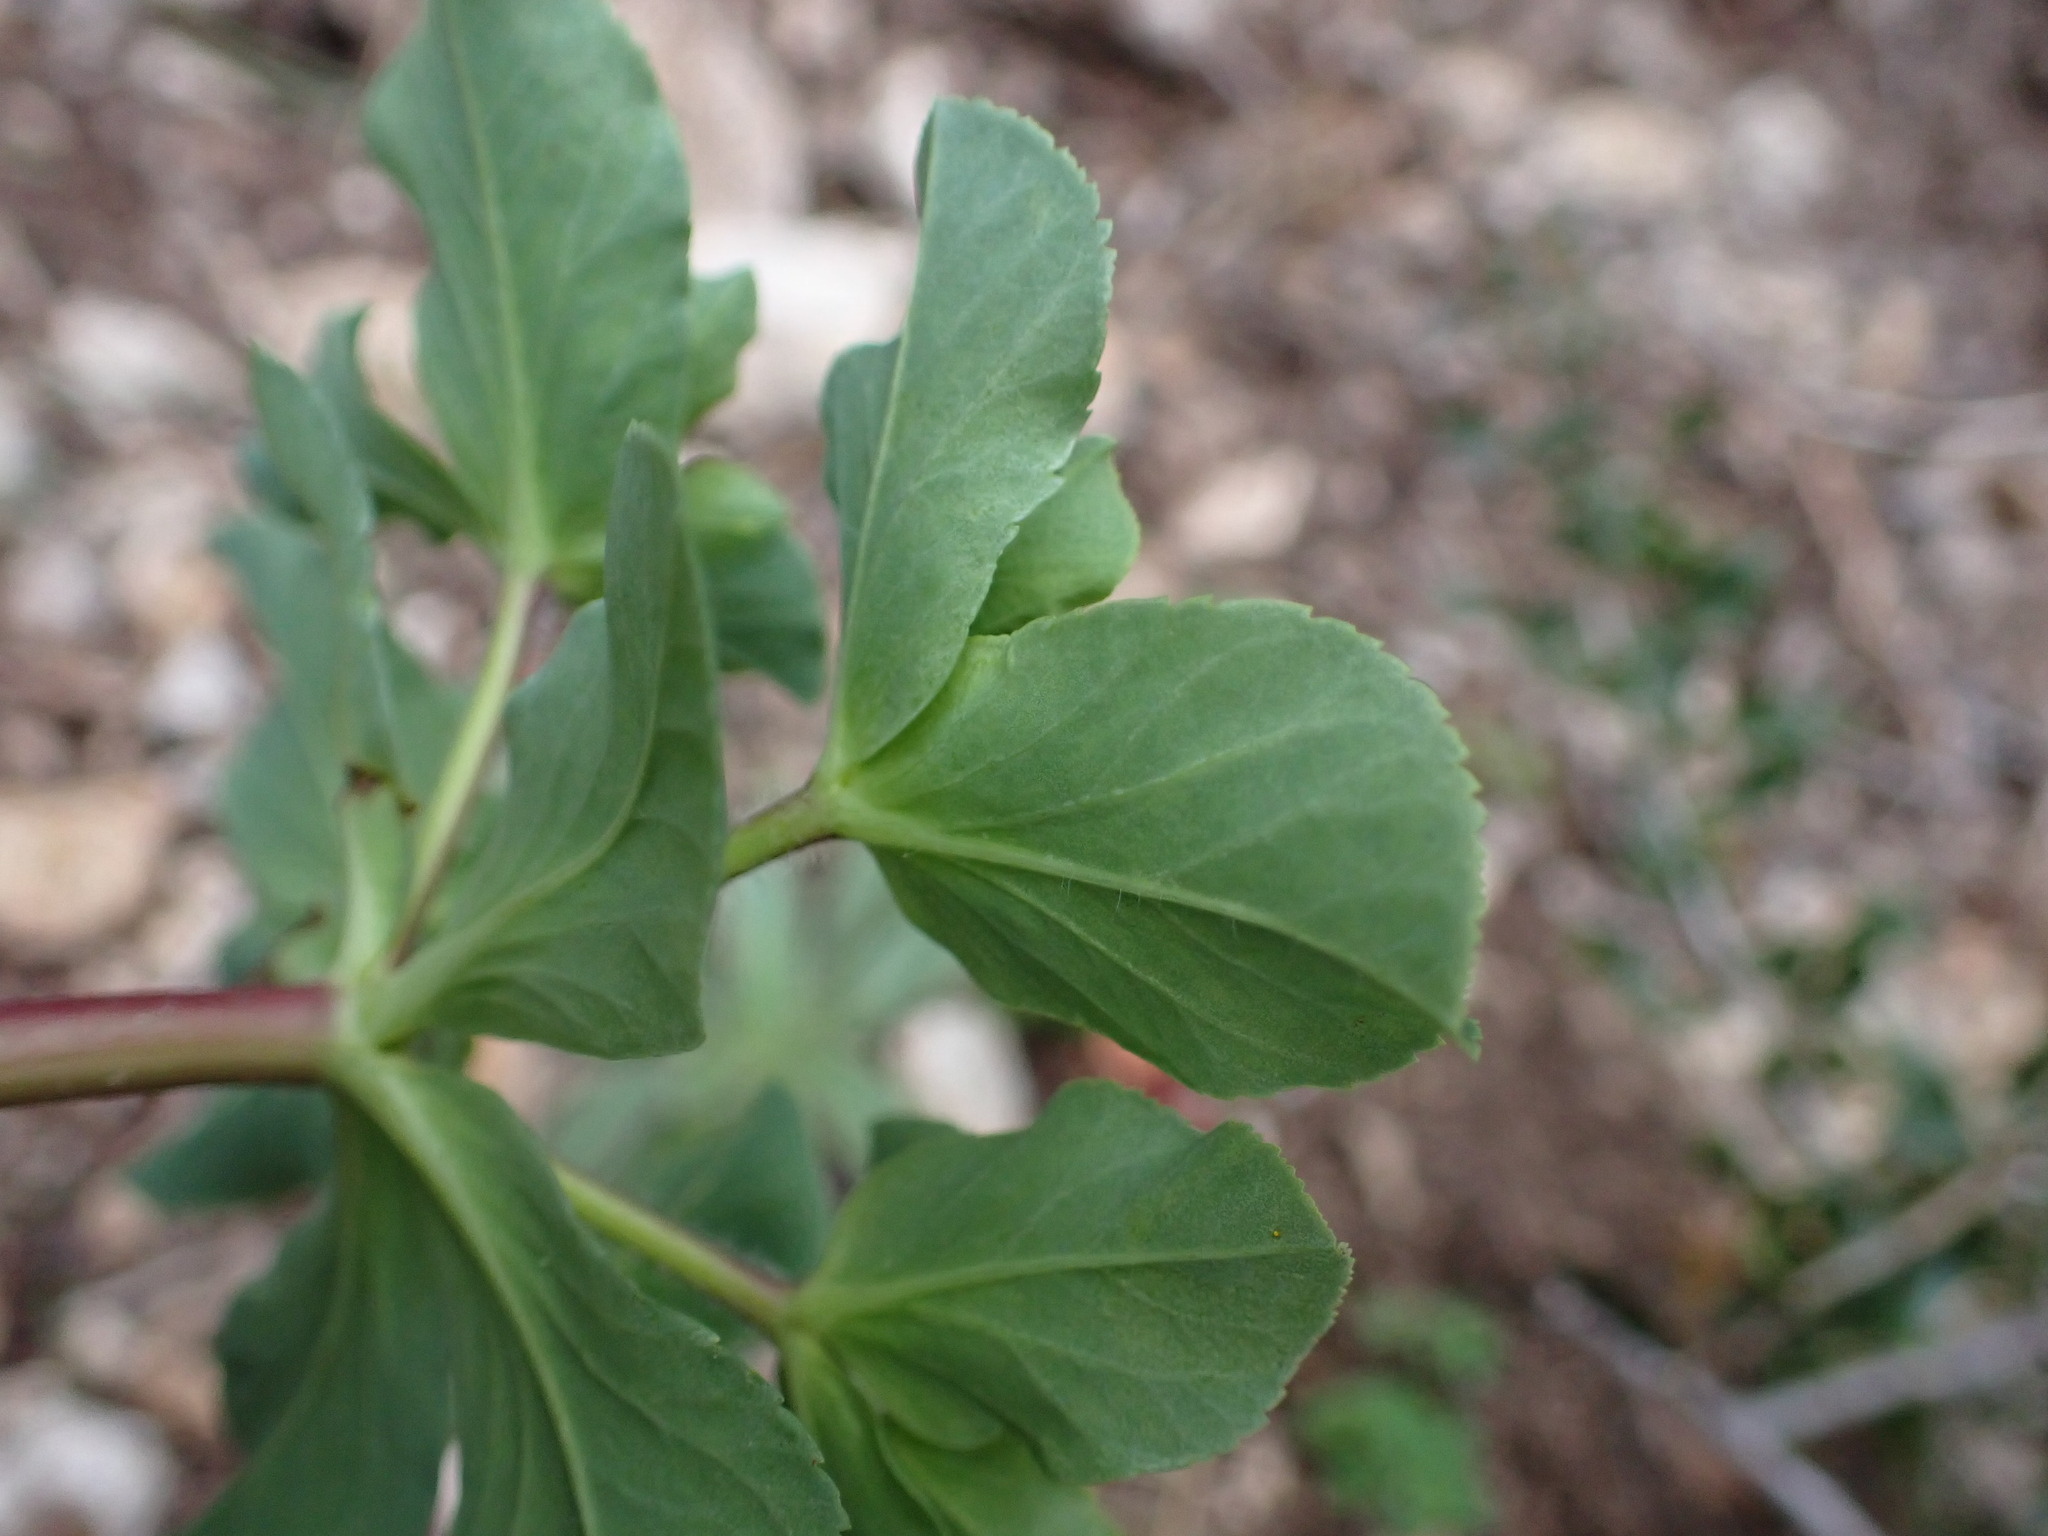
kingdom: Plantae
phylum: Tracheophyta
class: Magnoliopsida
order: Malpighiales
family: Euphorbiaceae
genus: Euphorbia
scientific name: Euphorbia helioscopia
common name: Sun spurge
